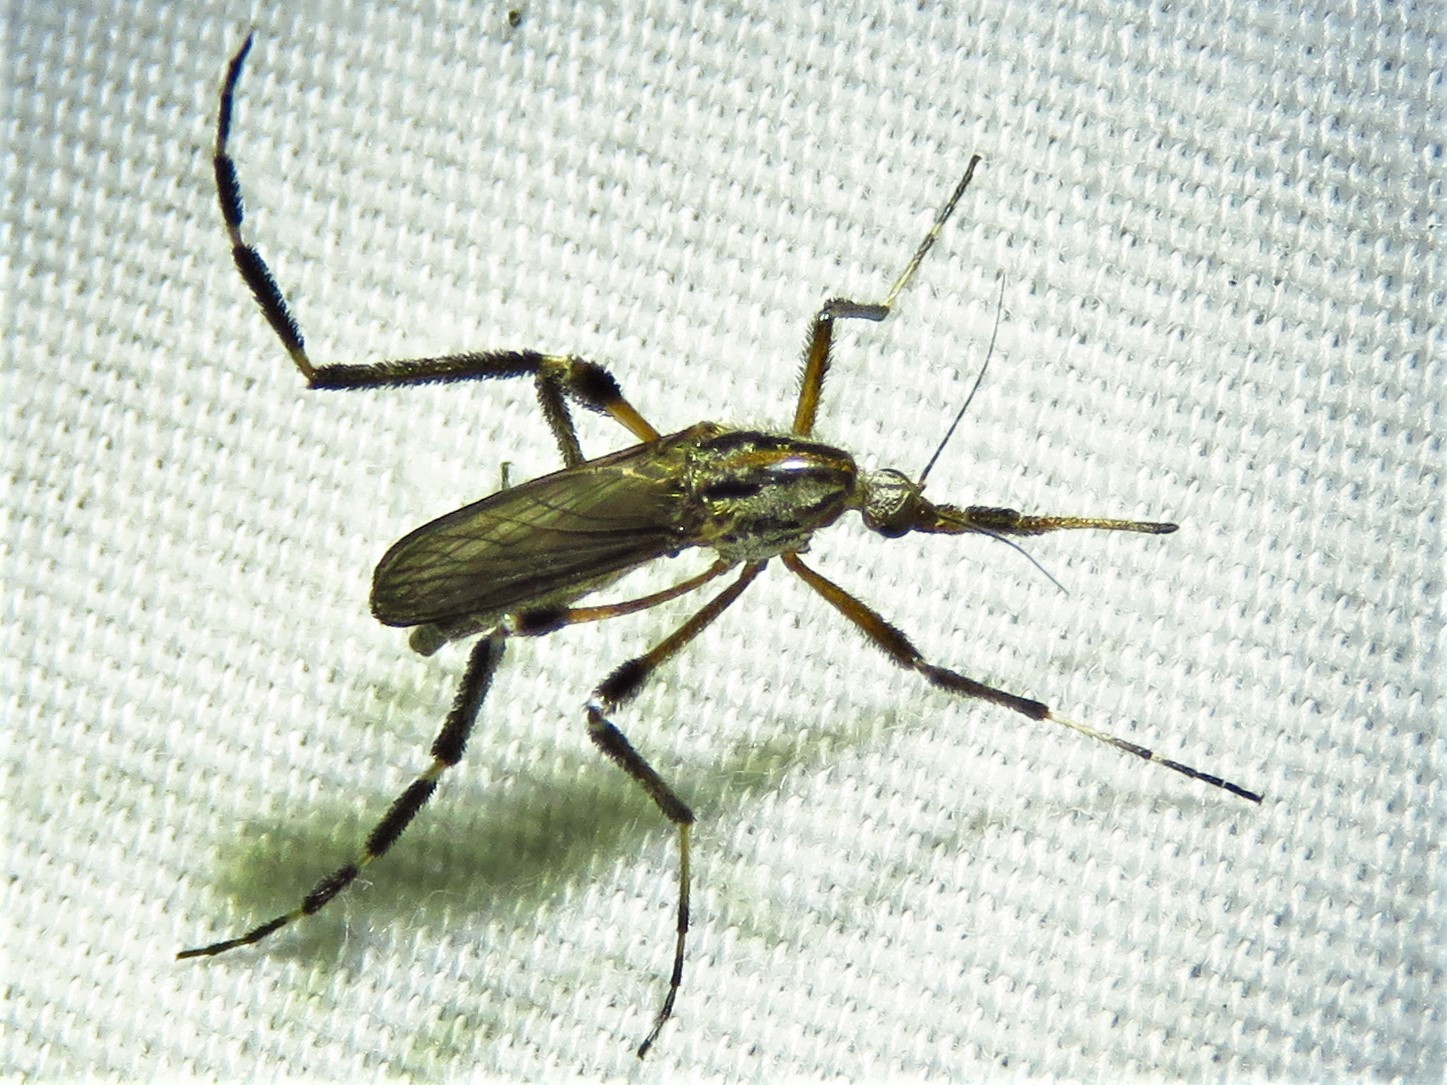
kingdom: Animalia
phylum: Arthropoda
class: Insecta
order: Diptera
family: Culicidae
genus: Psorophora
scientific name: Psorophora ciliata
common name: Gallinipper
